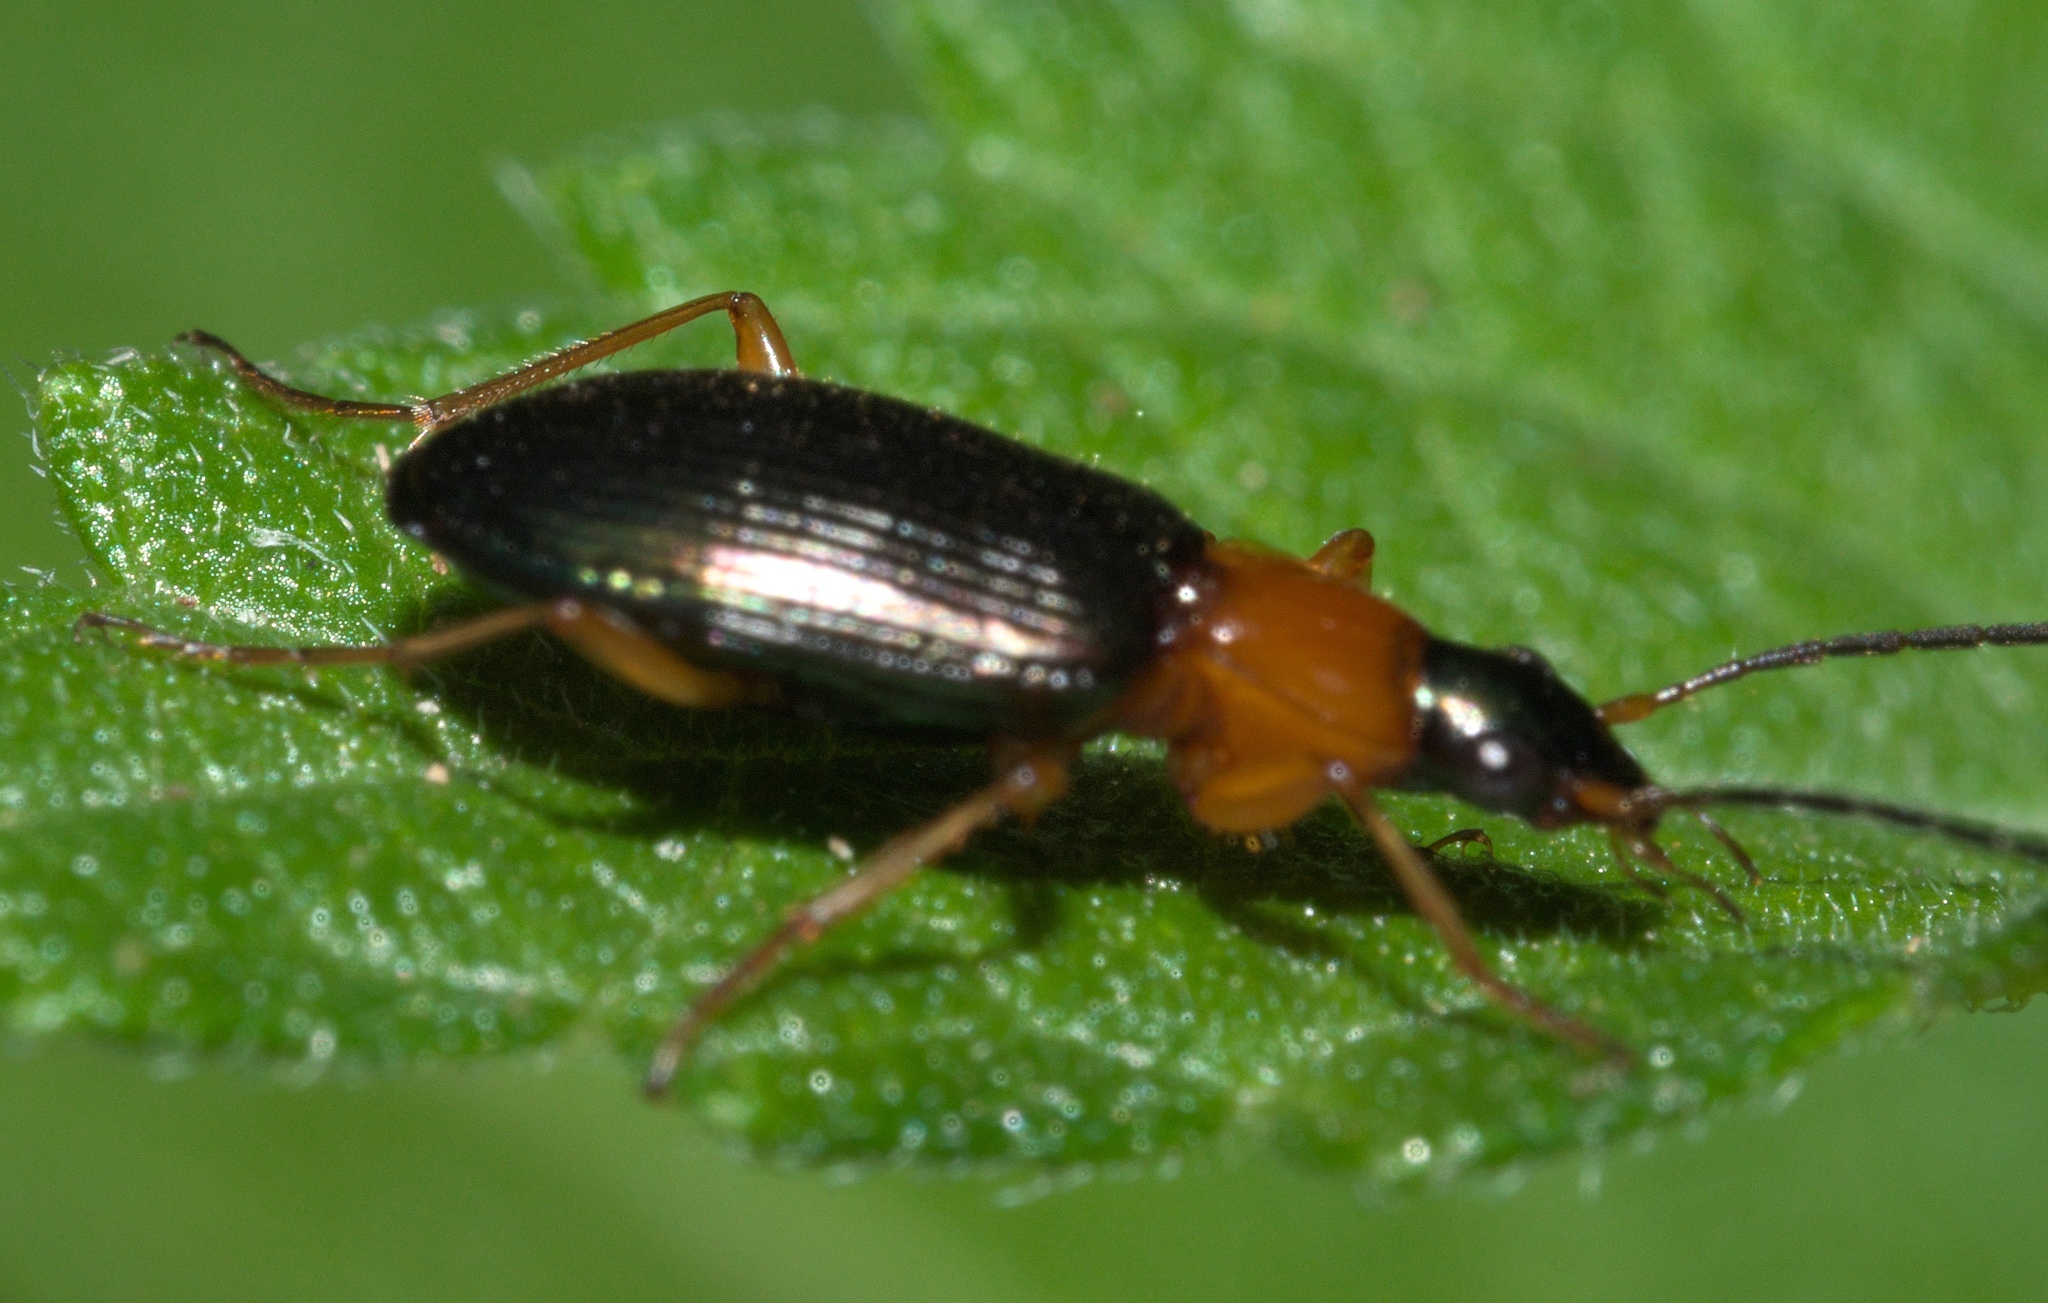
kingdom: Animalia
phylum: Arthropoda
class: Insecta
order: Coleoptera
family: Carabidae
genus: Agonum
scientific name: Agonum decorum
